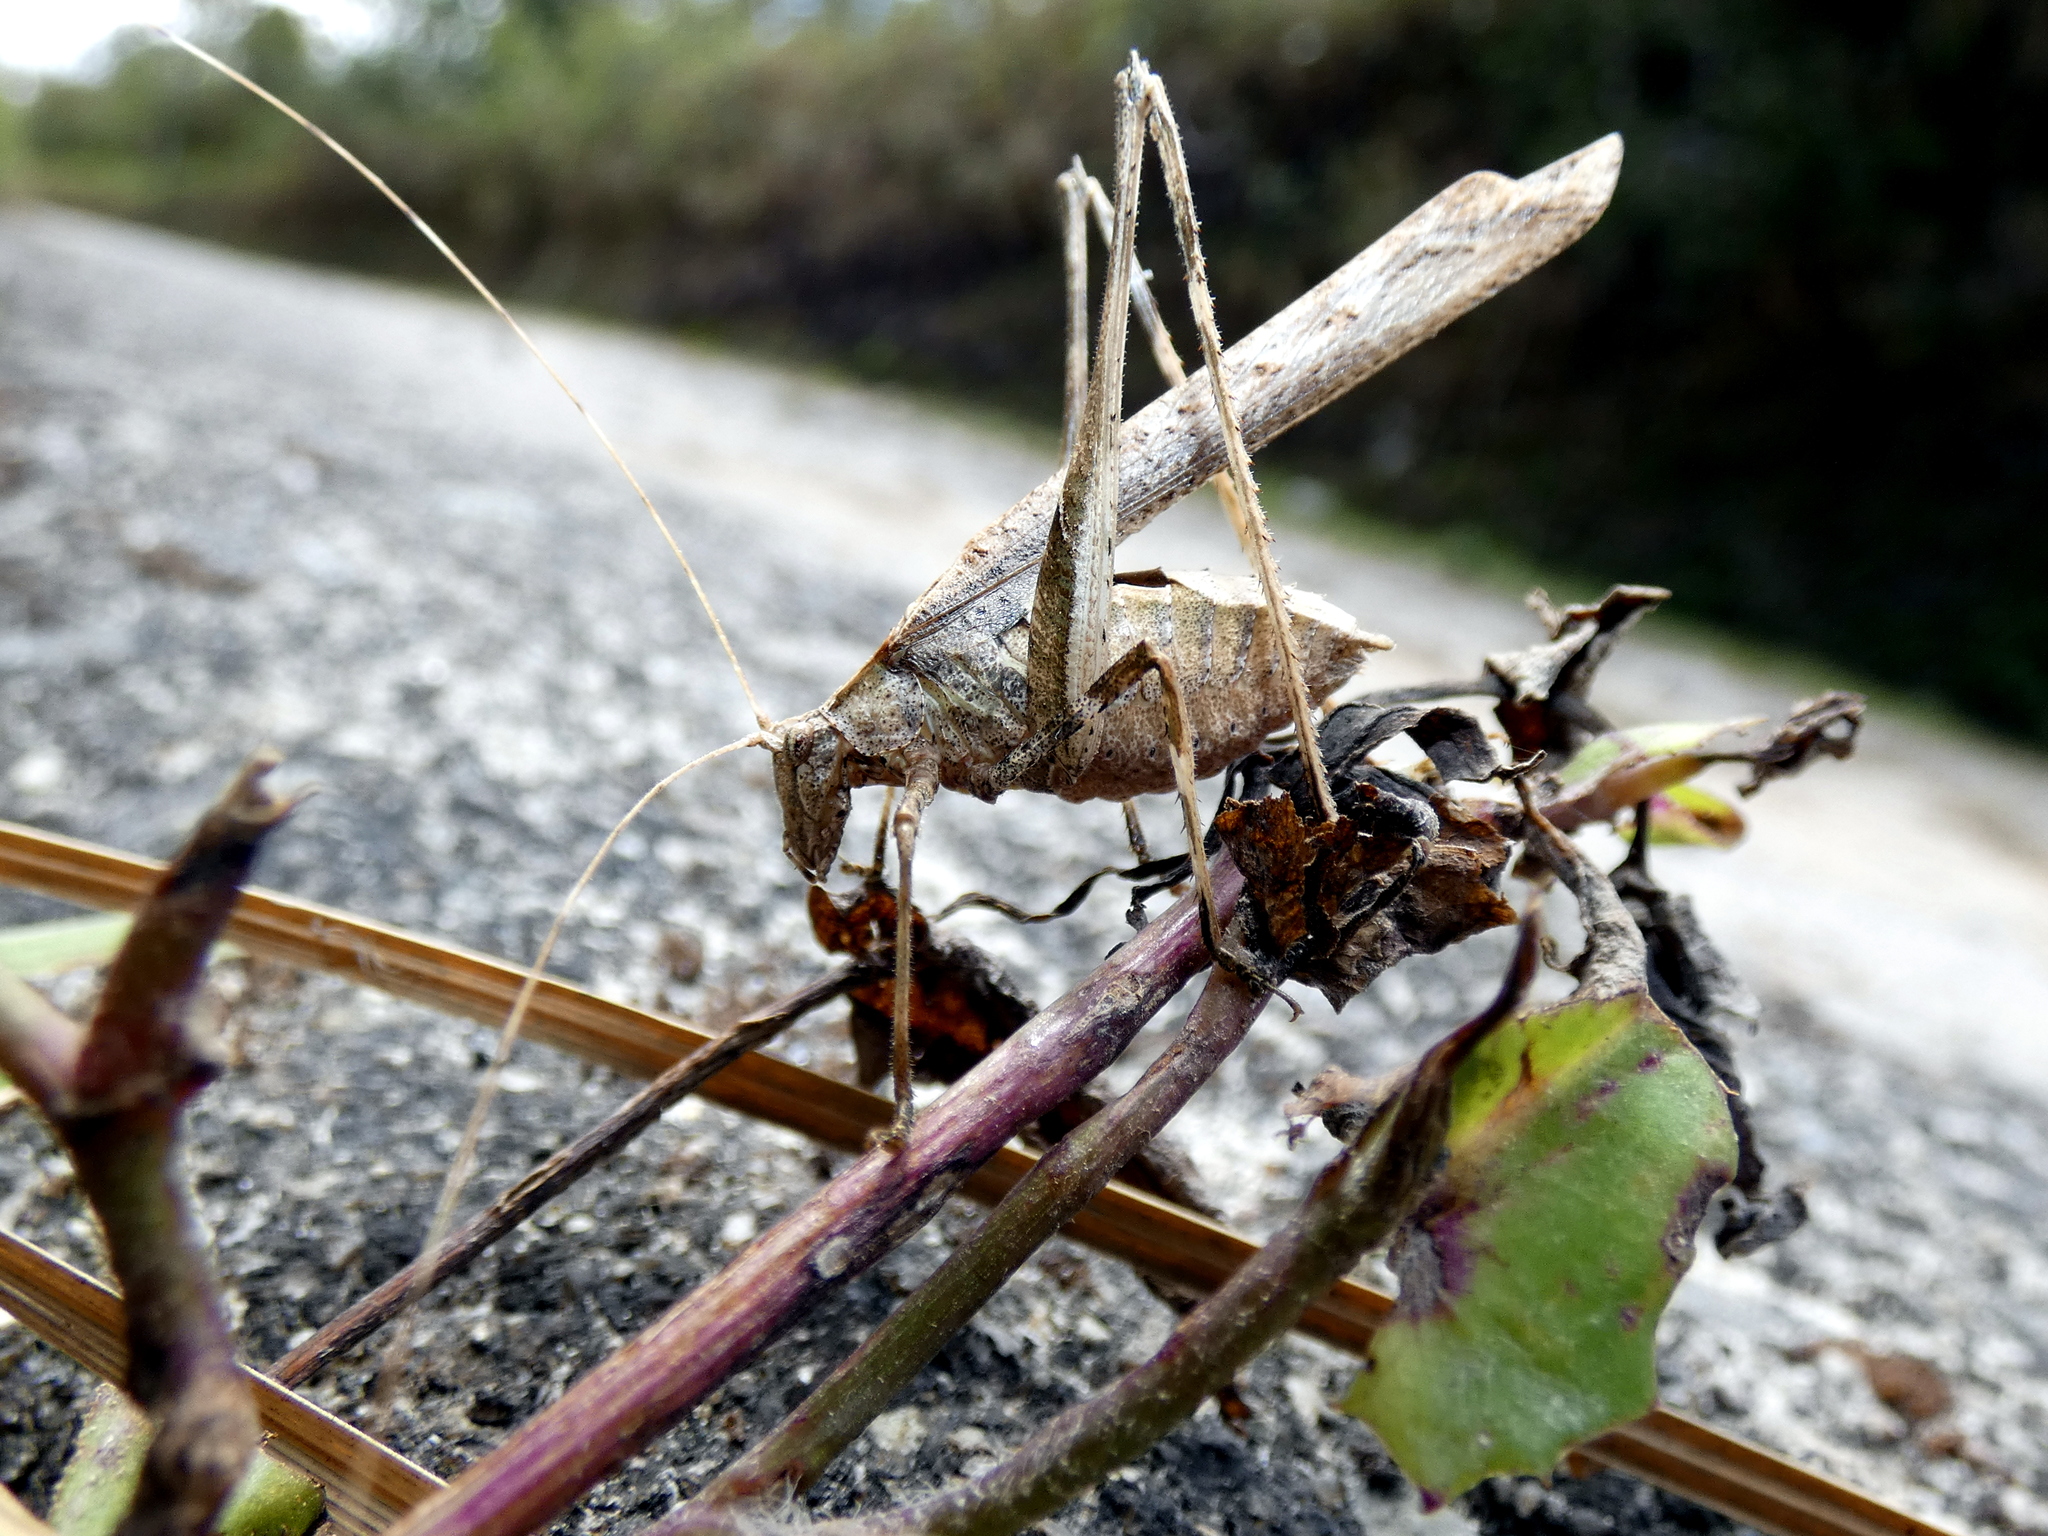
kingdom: Animalia
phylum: Arthropoda
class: Insecta
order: Orthoptera
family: Tettigoniidae
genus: Insara
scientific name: Insara bolivari
